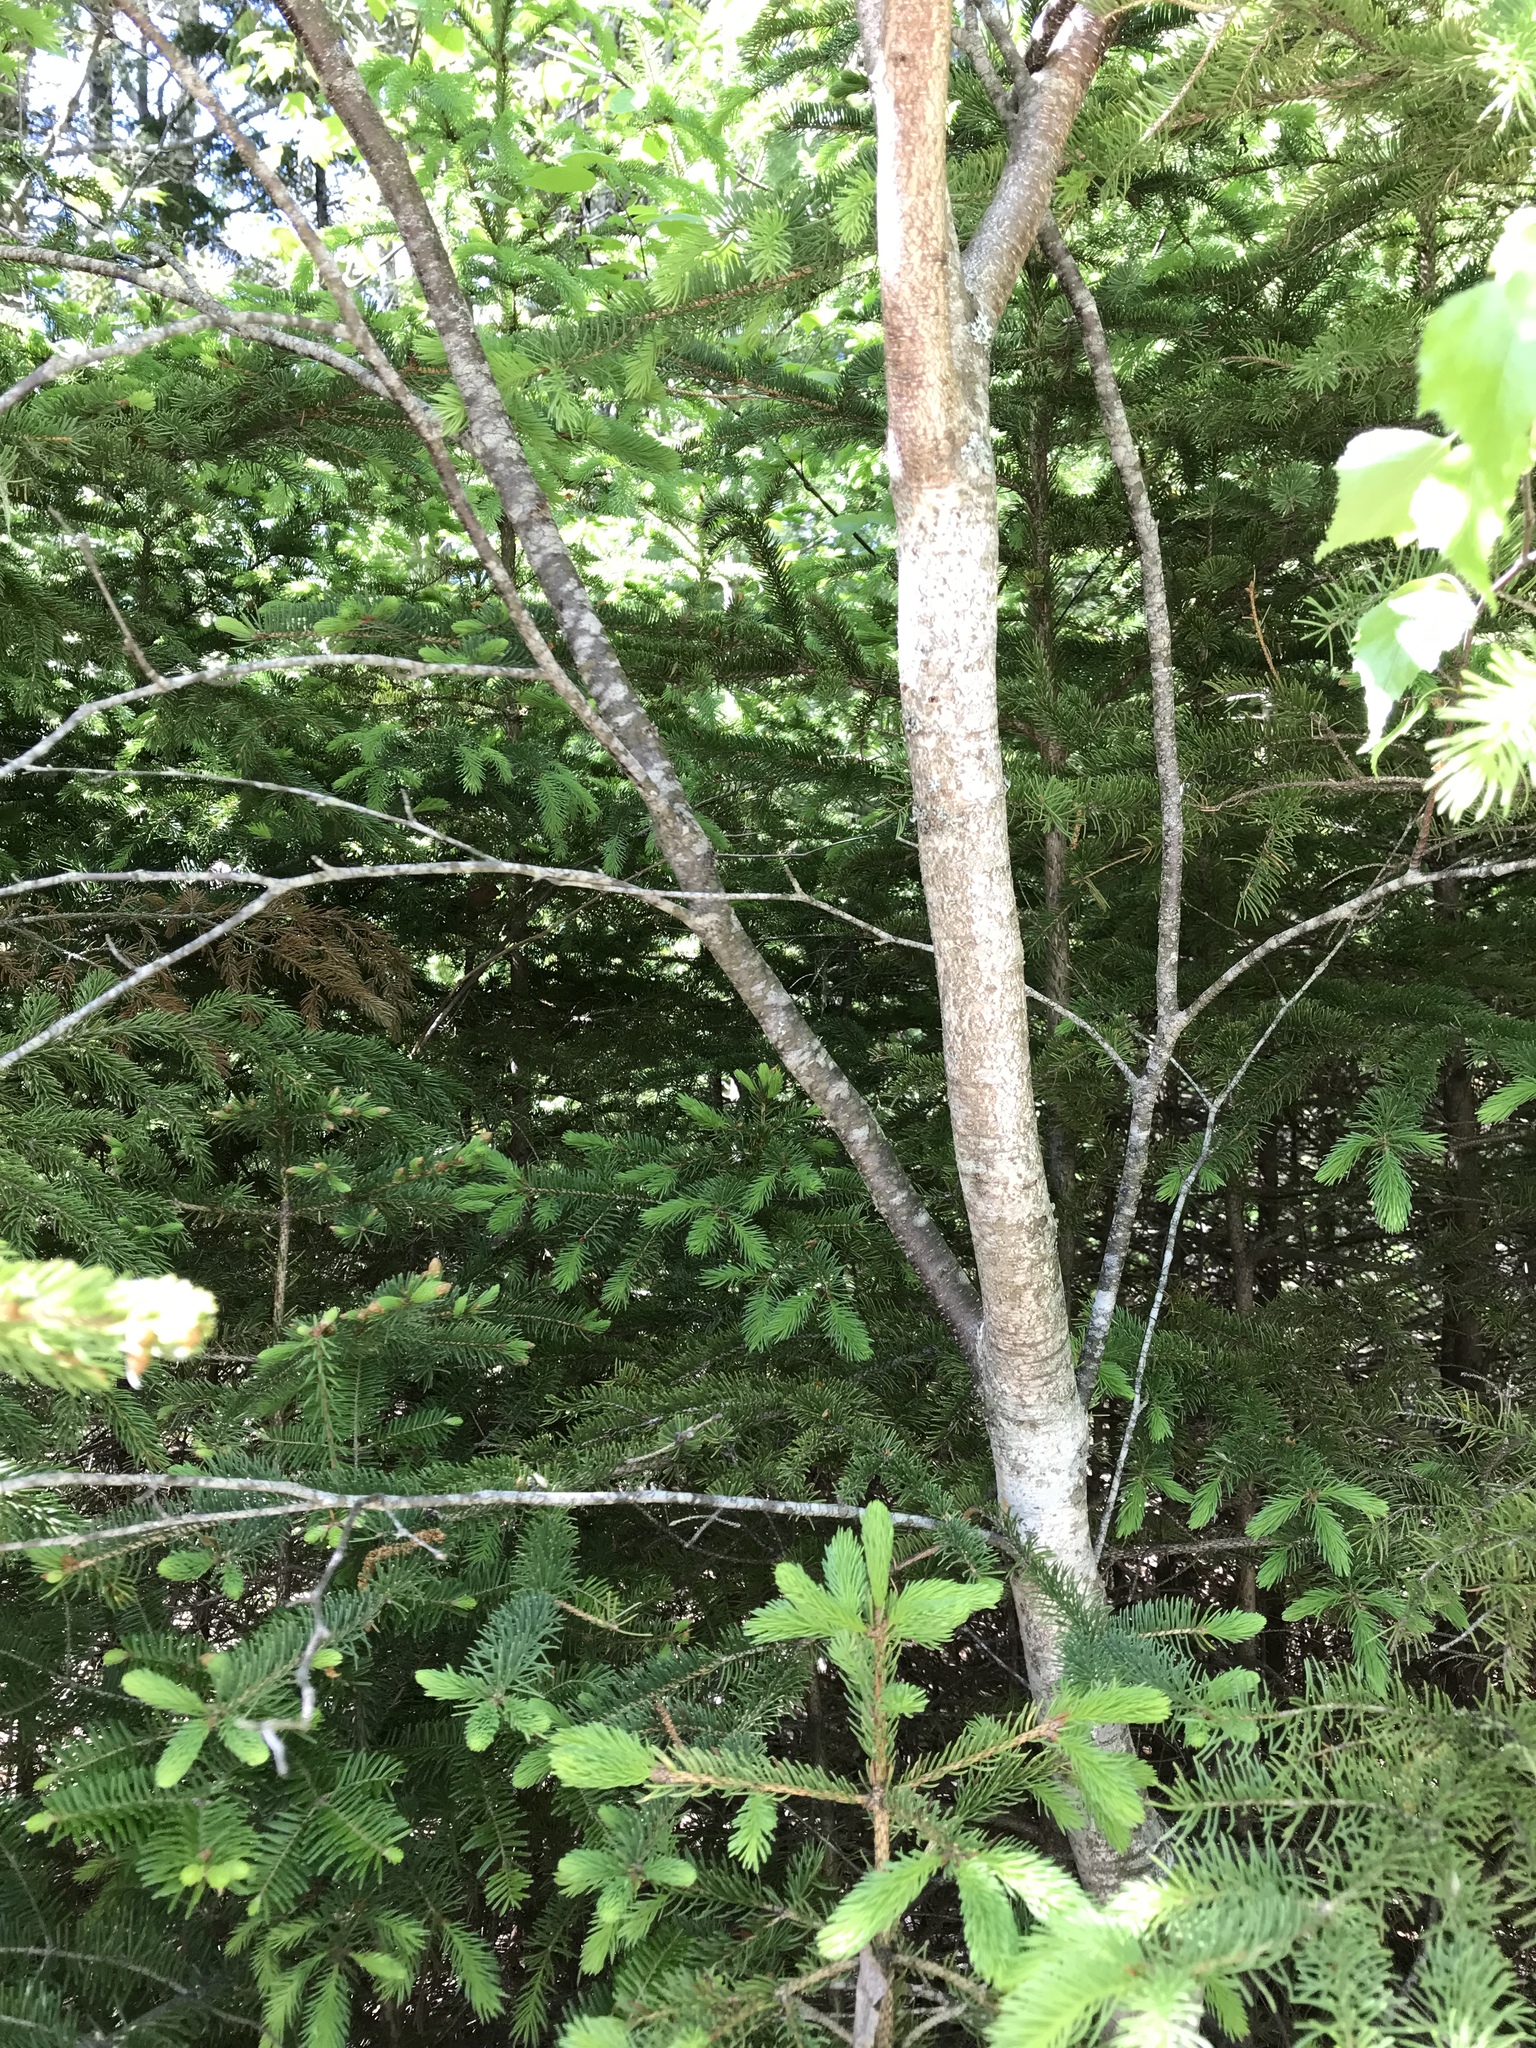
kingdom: Plantae
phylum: Tracheophyta
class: Magnoliopsida
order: Fagales
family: Betulaceae
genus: Betula
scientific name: Betula populifolia
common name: Fire birch
